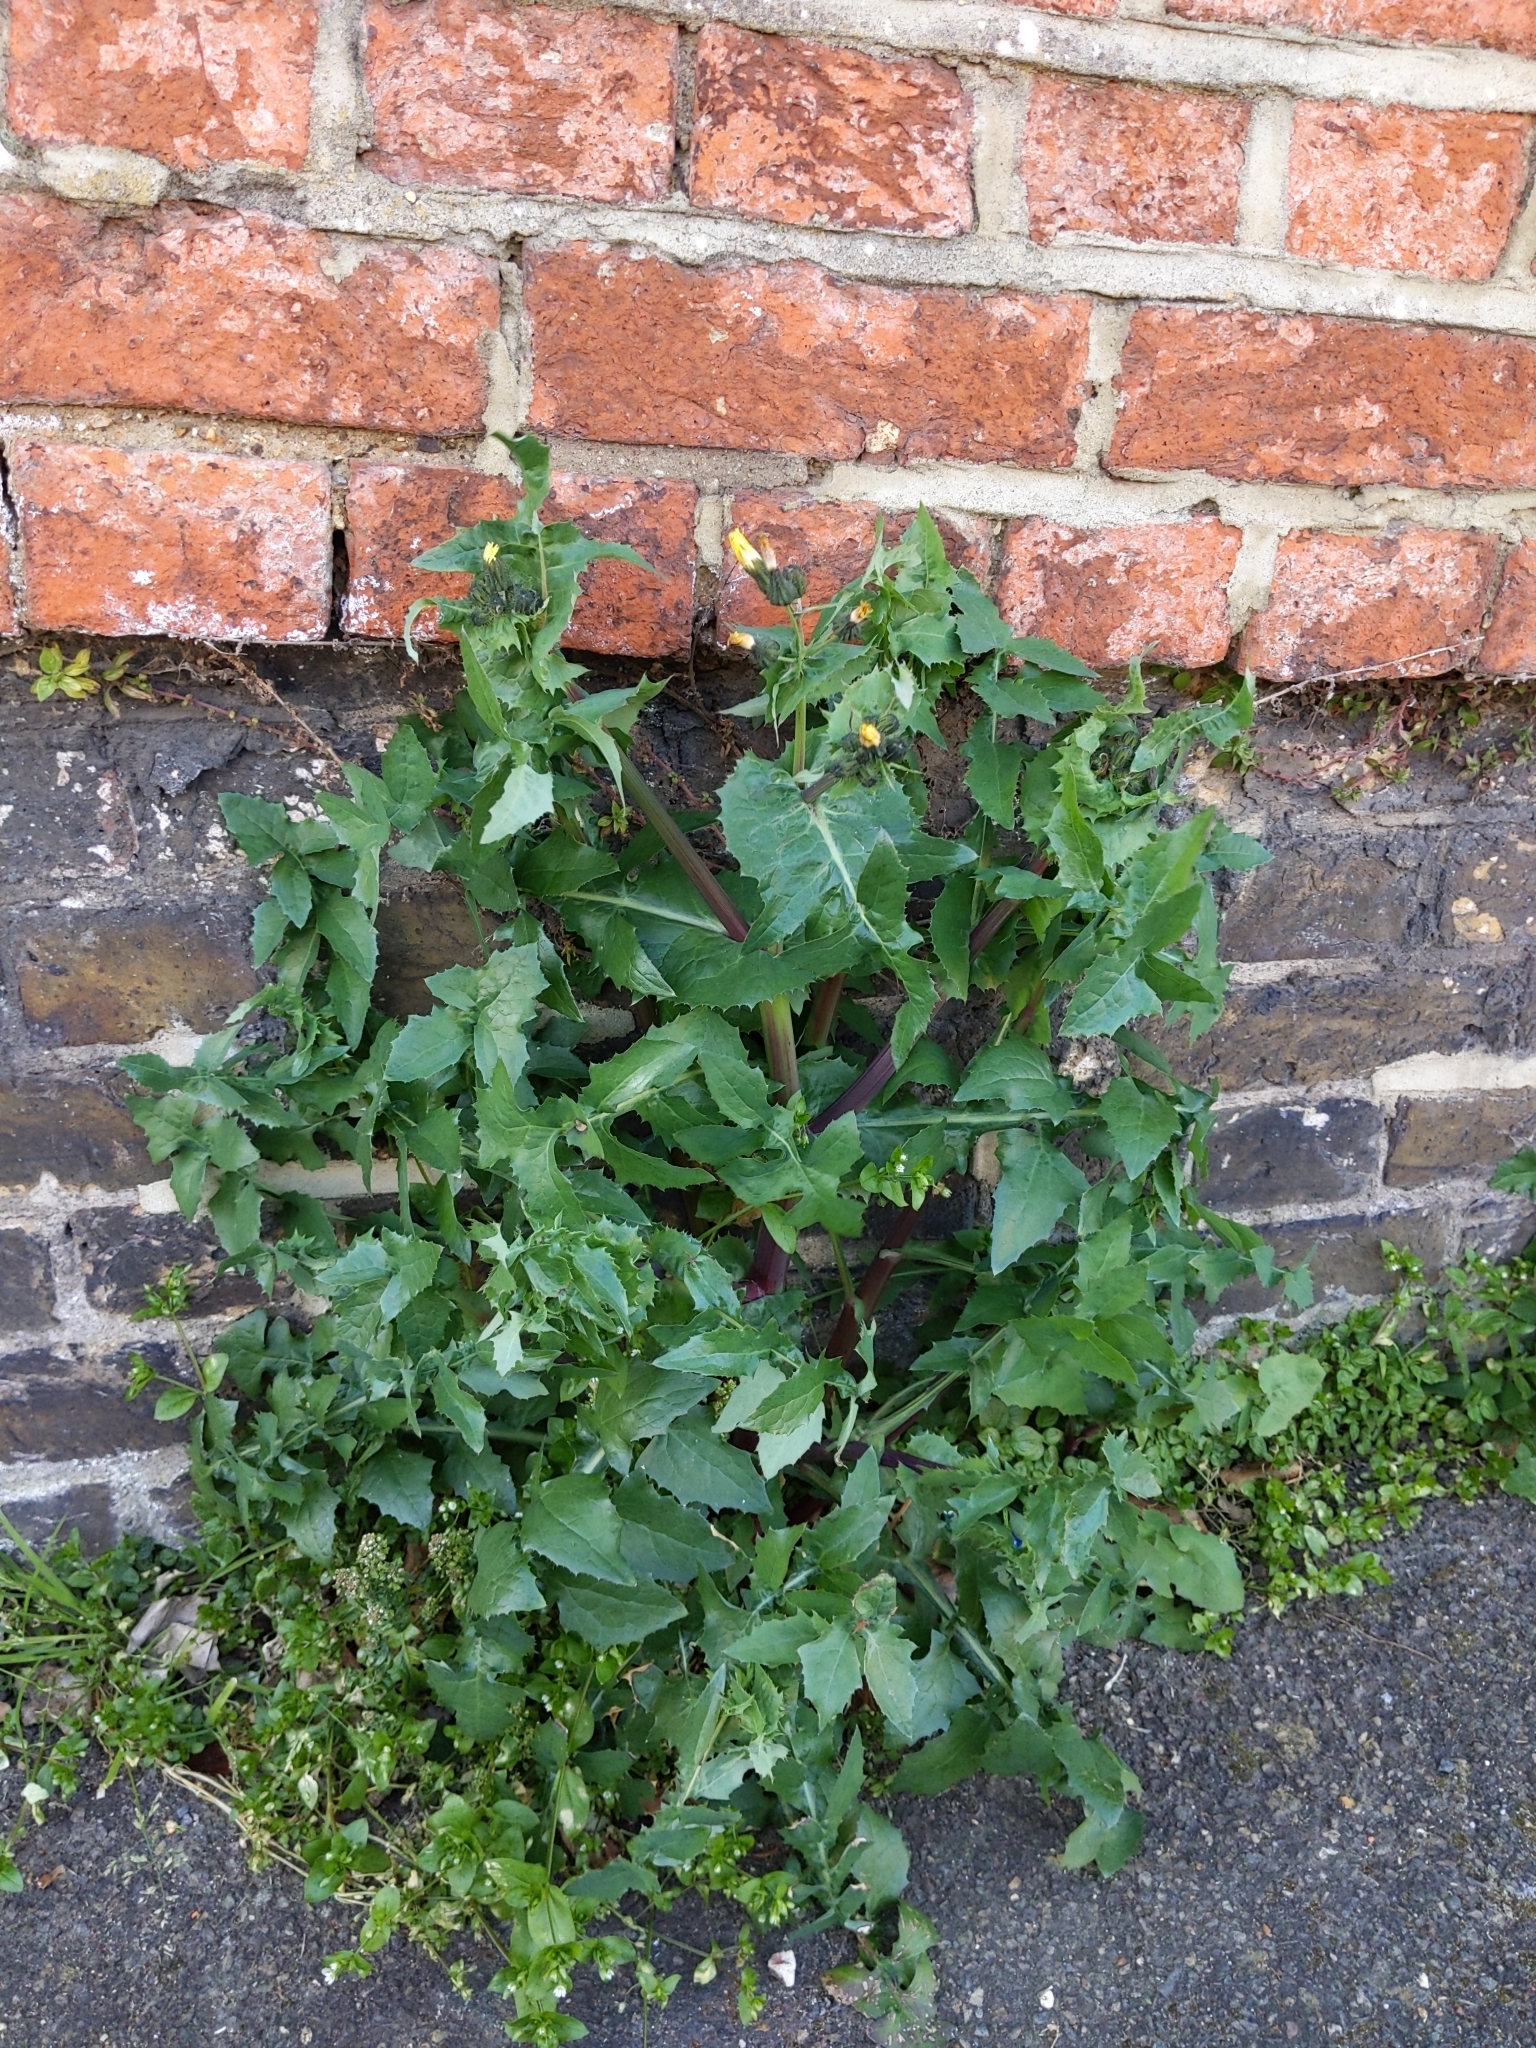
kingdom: Plantae
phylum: Tracheophyta
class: Magnoliopsida
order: Asterales
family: Asteraceae
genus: Sonchus
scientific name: Sonchus oleraceus
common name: Common sowthistle
